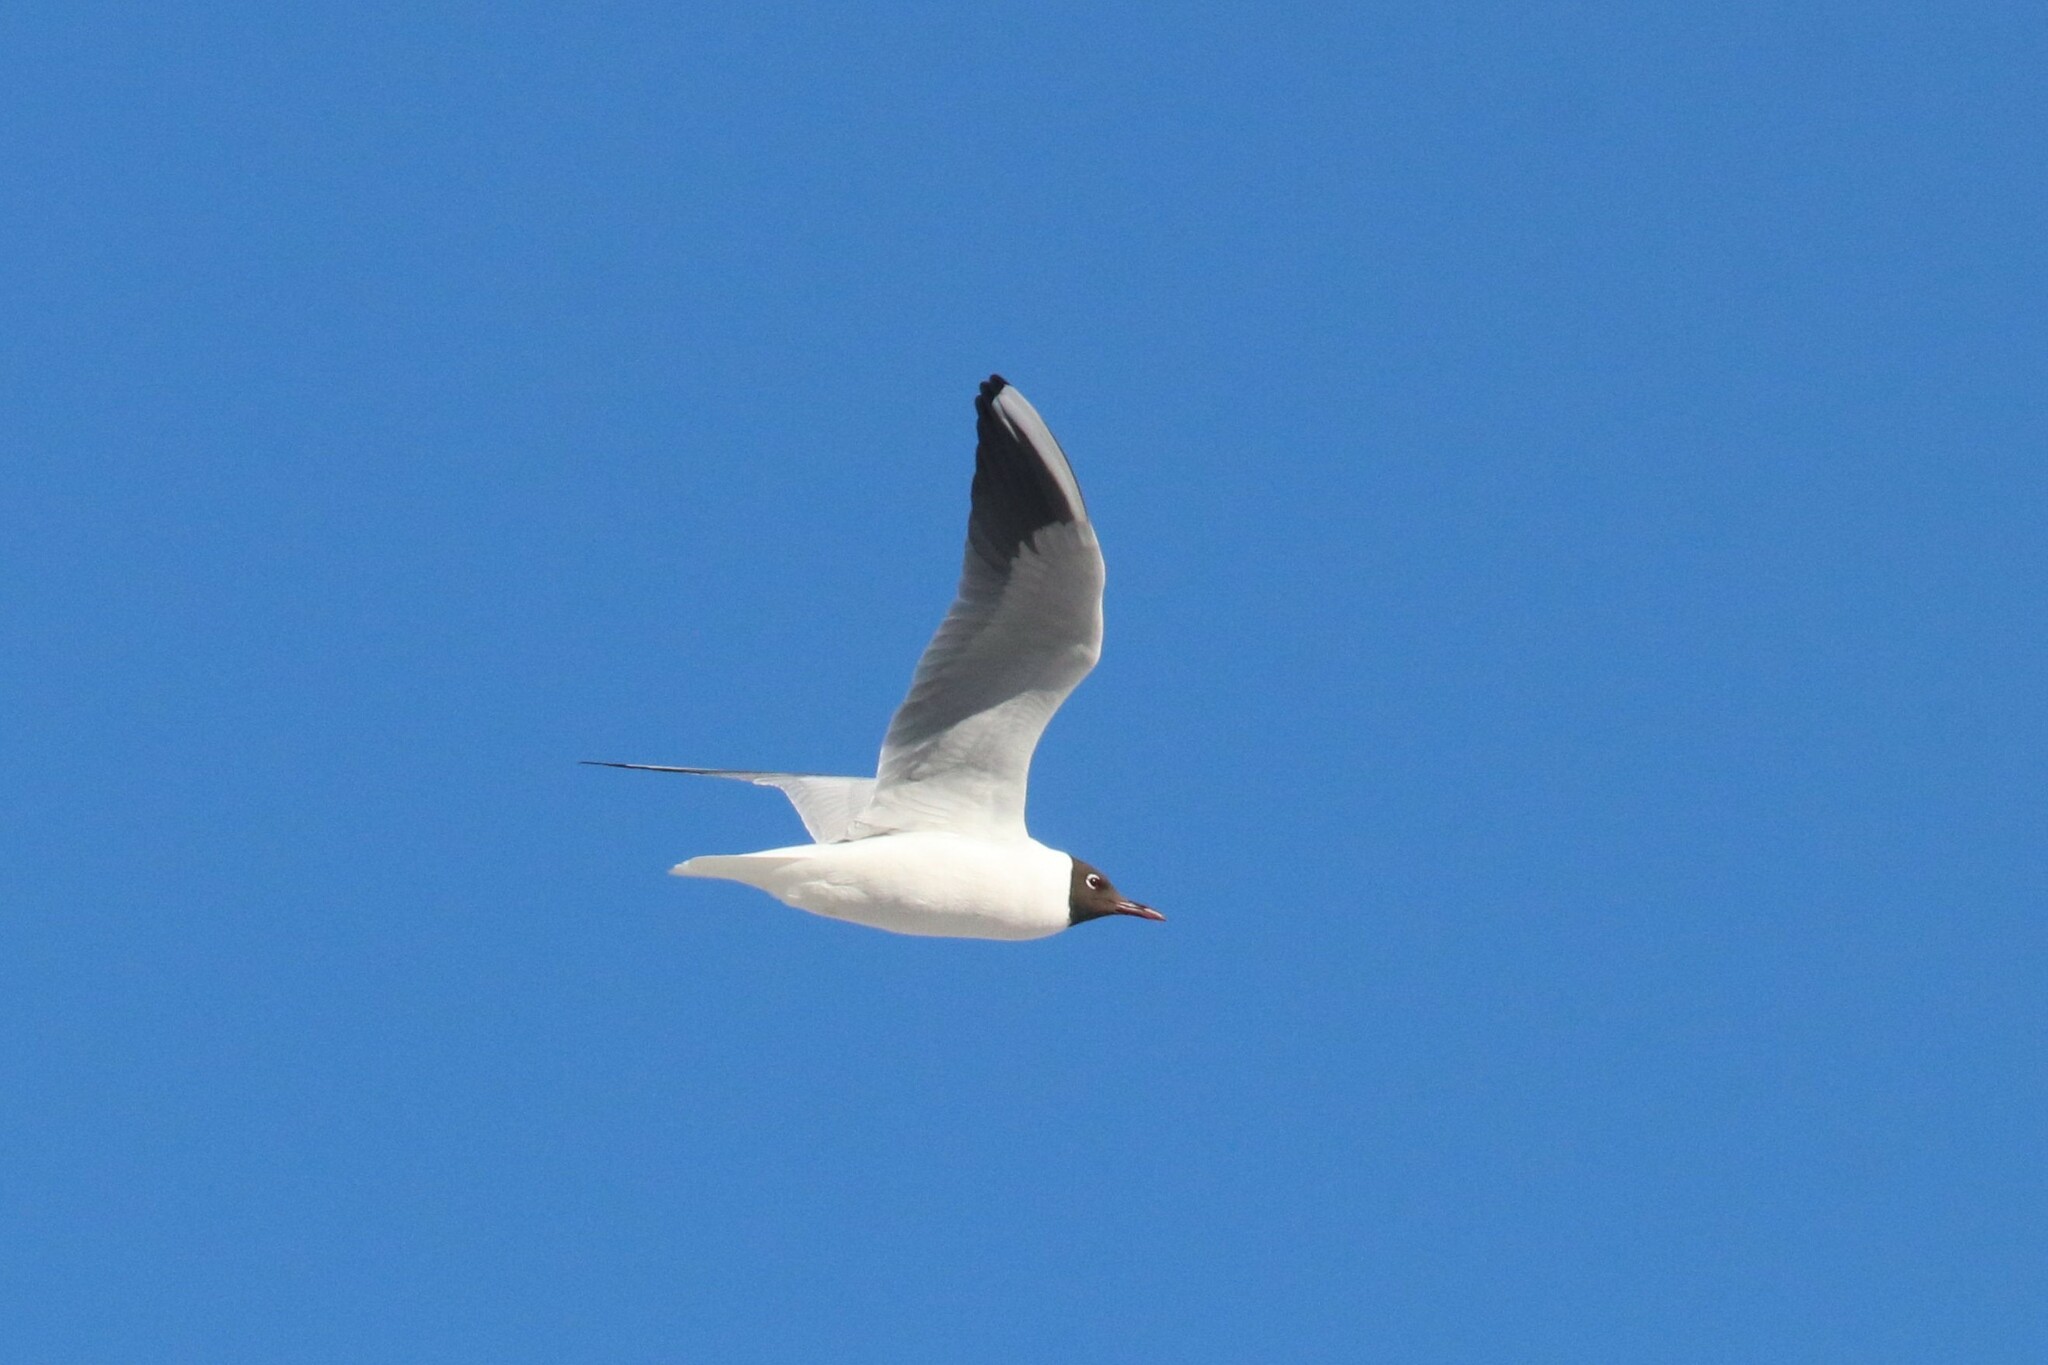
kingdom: Animalia
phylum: Chordata
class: Aves
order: Charadriiformes
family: Laridae
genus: Chroicocephalus
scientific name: Chroicocephalus ridibundus
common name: Black-headed gull
